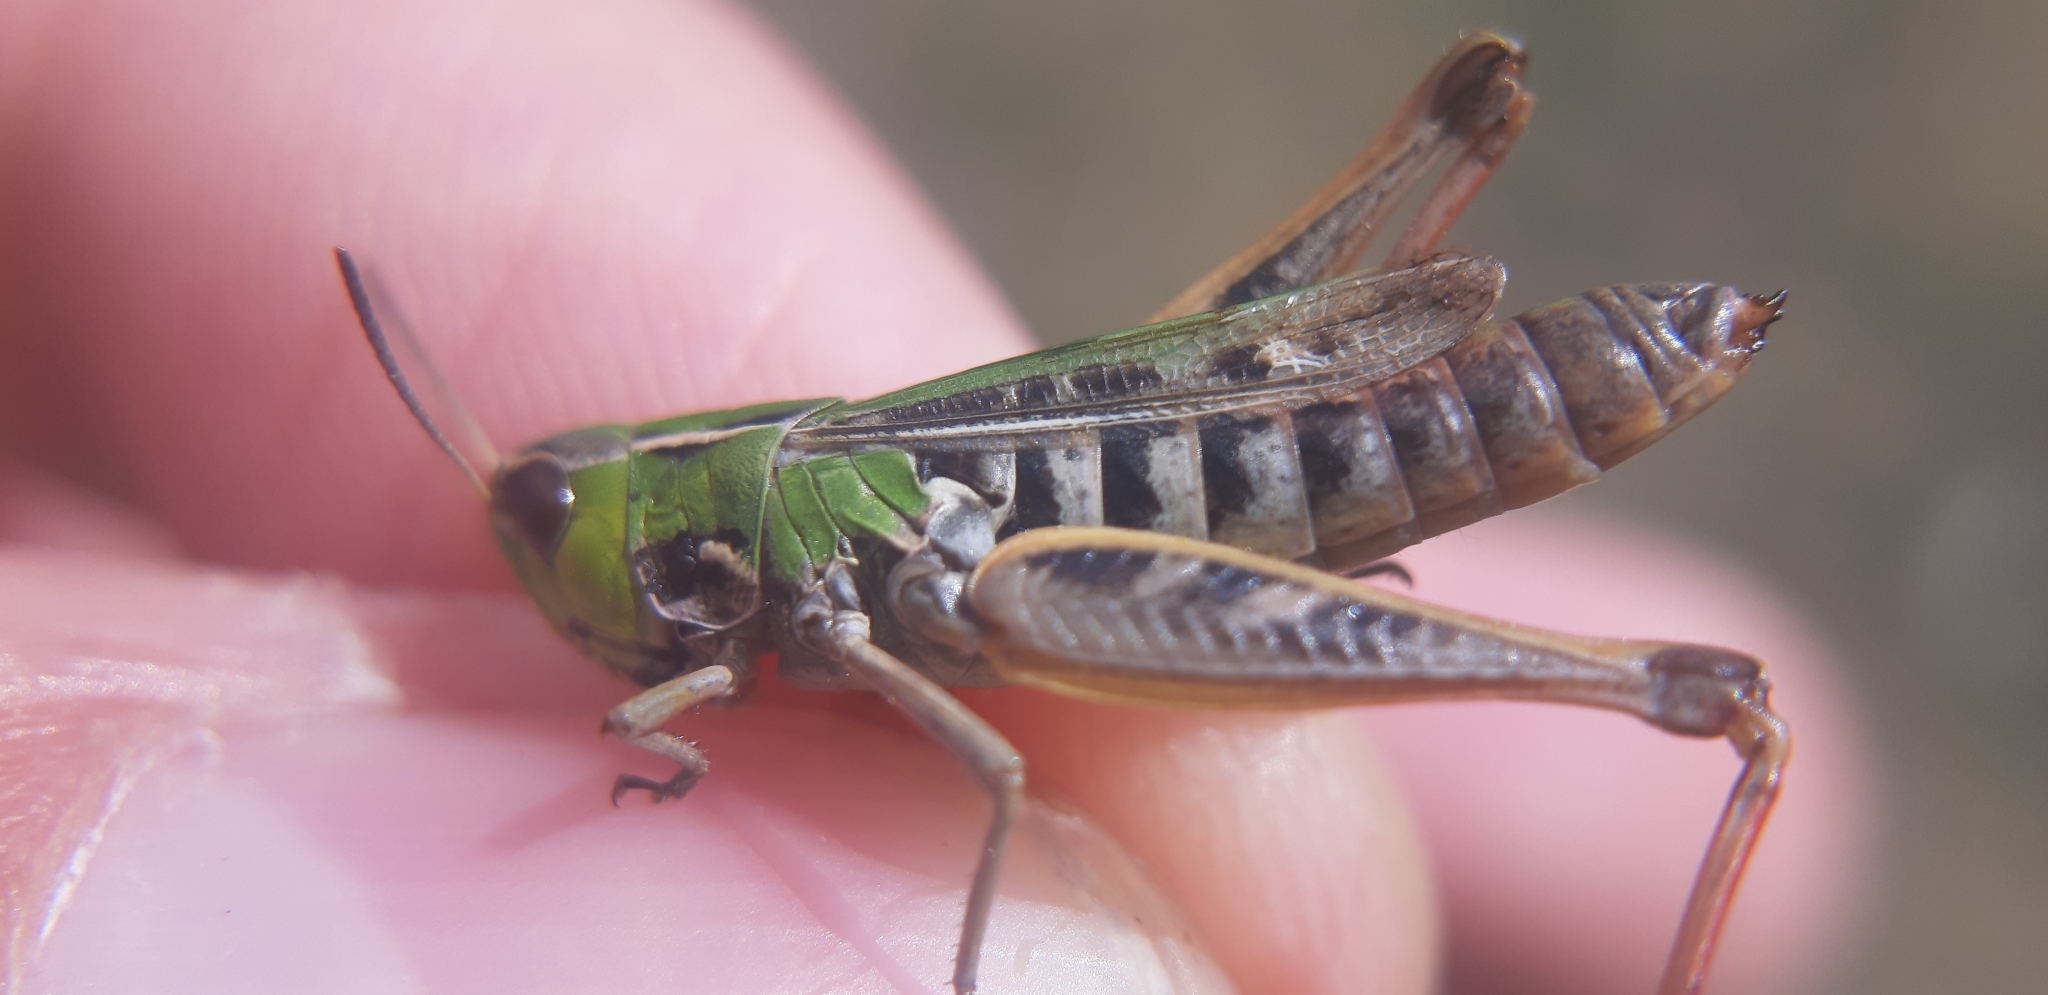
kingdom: Animalia
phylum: Arthropoda
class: Insecta
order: Orthoptera
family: Acrididae
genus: Stenobothrus
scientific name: Stenobothrus stigmaticus
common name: Lesser mottled grasshopper
